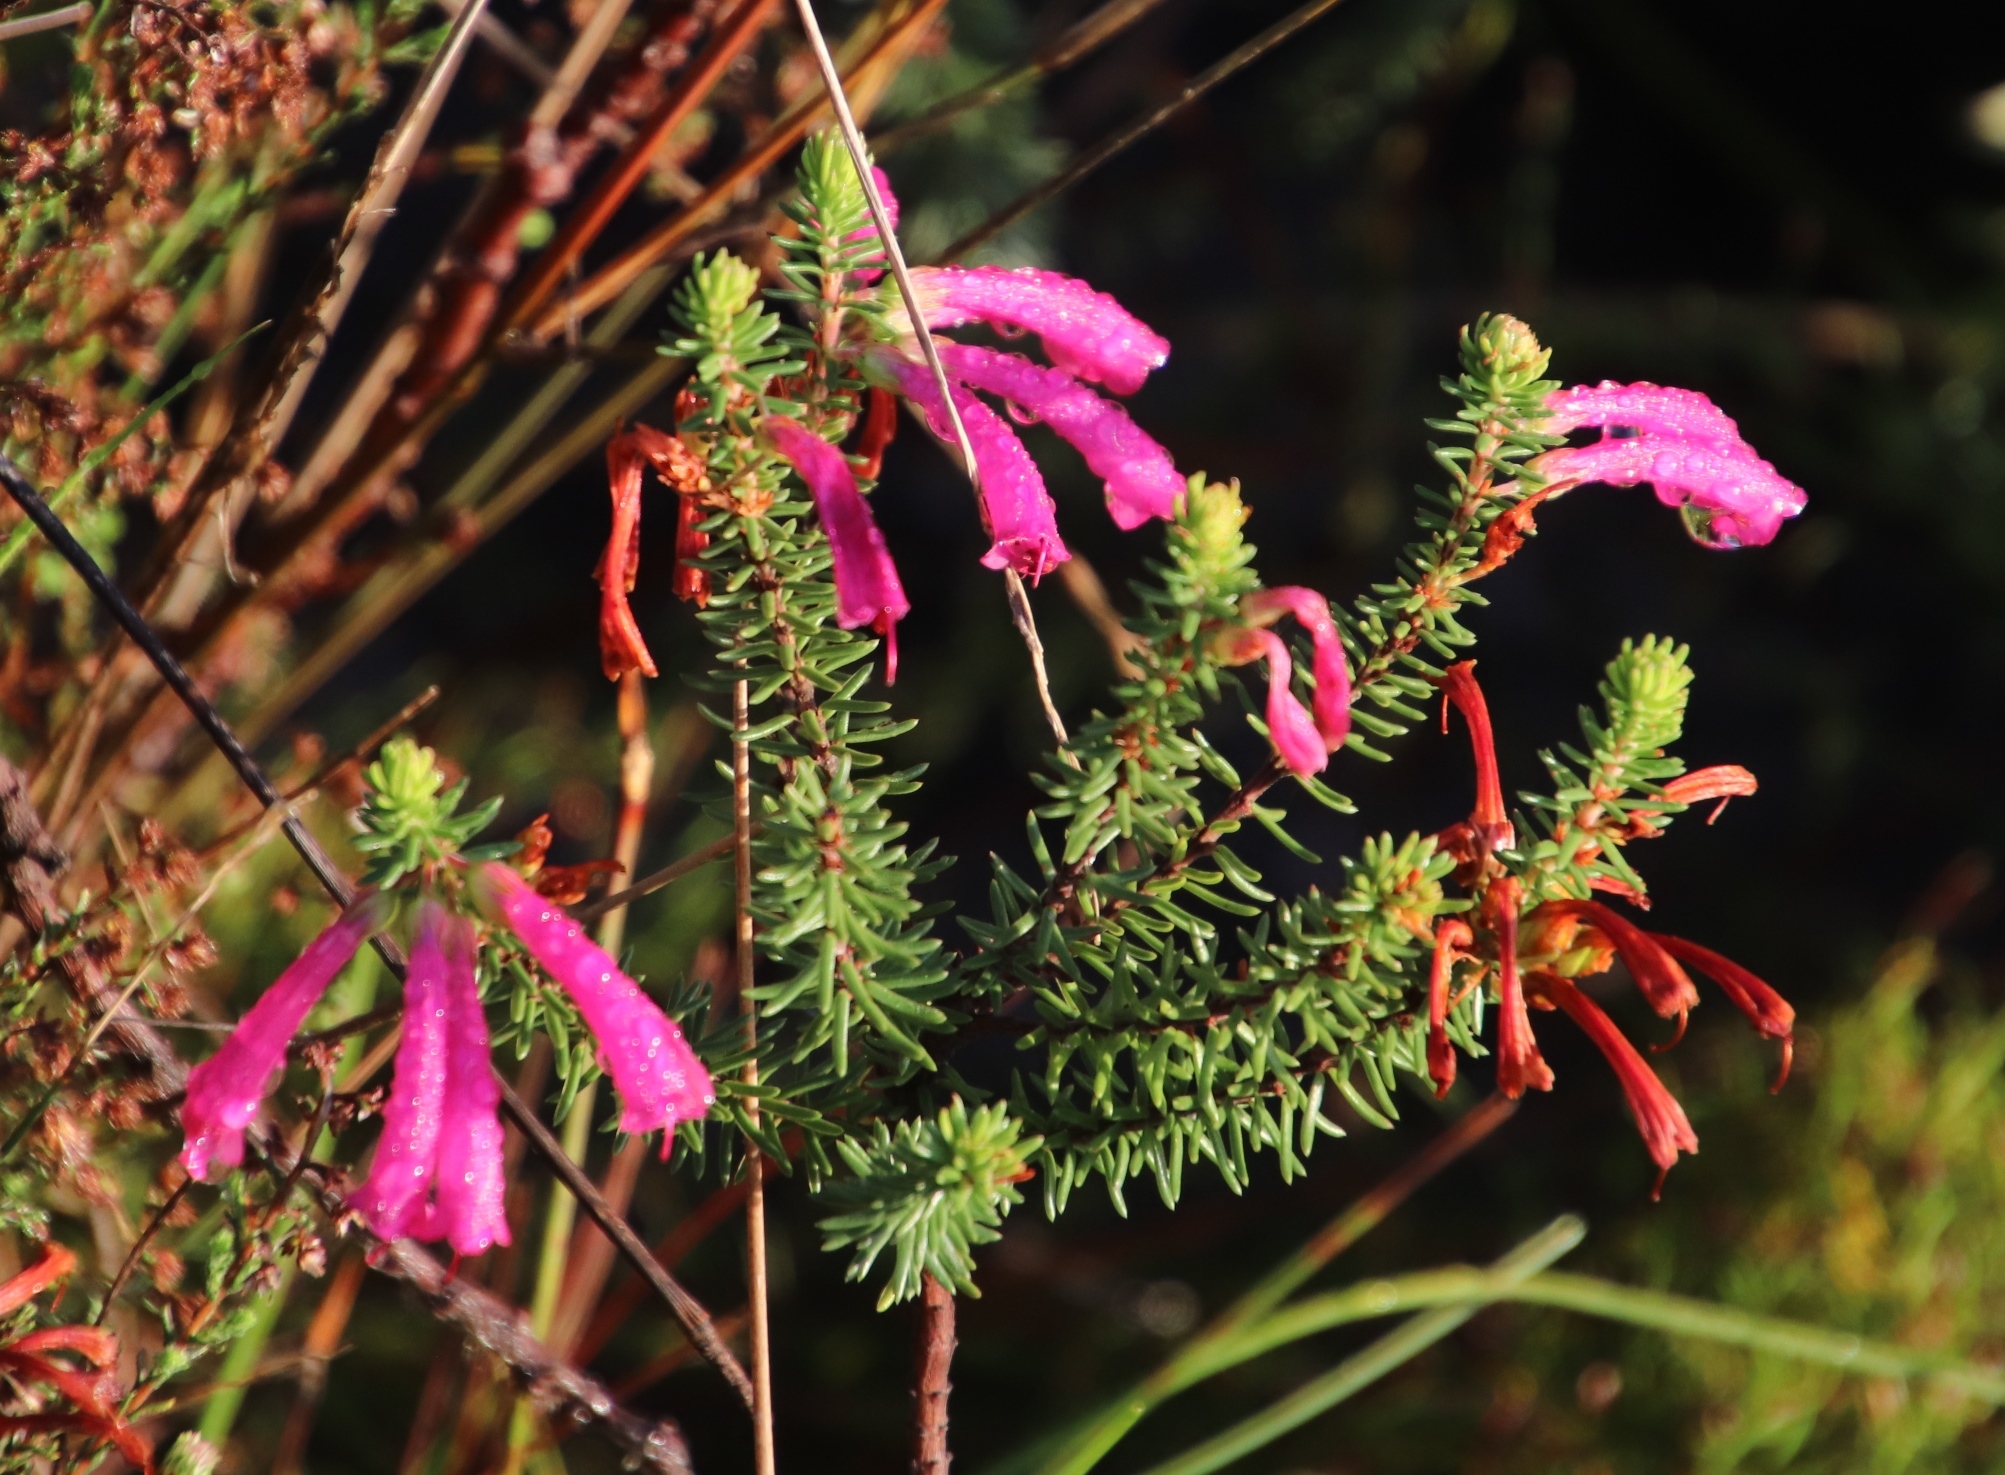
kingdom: Plantae
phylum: Tracheophyta
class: Magnoliopsida
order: Ericales
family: Ericaceae
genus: Erica
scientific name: Erica abietina
